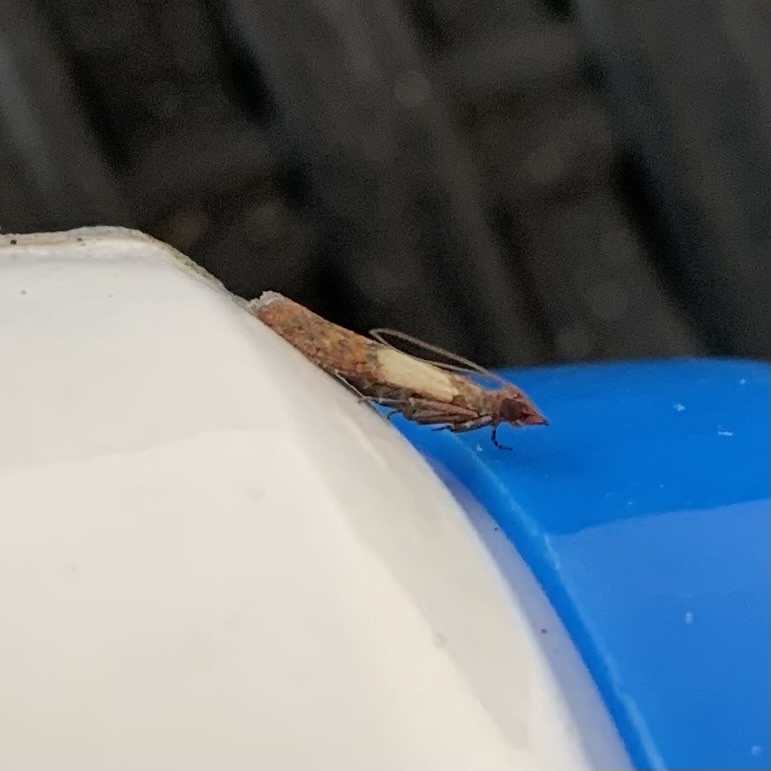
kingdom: Animalia
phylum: Arthropoda
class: Insecta
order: Lepidoptera
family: Pyralidae
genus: Plodia
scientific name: Plodia interpunctella
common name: Indian meal moth
